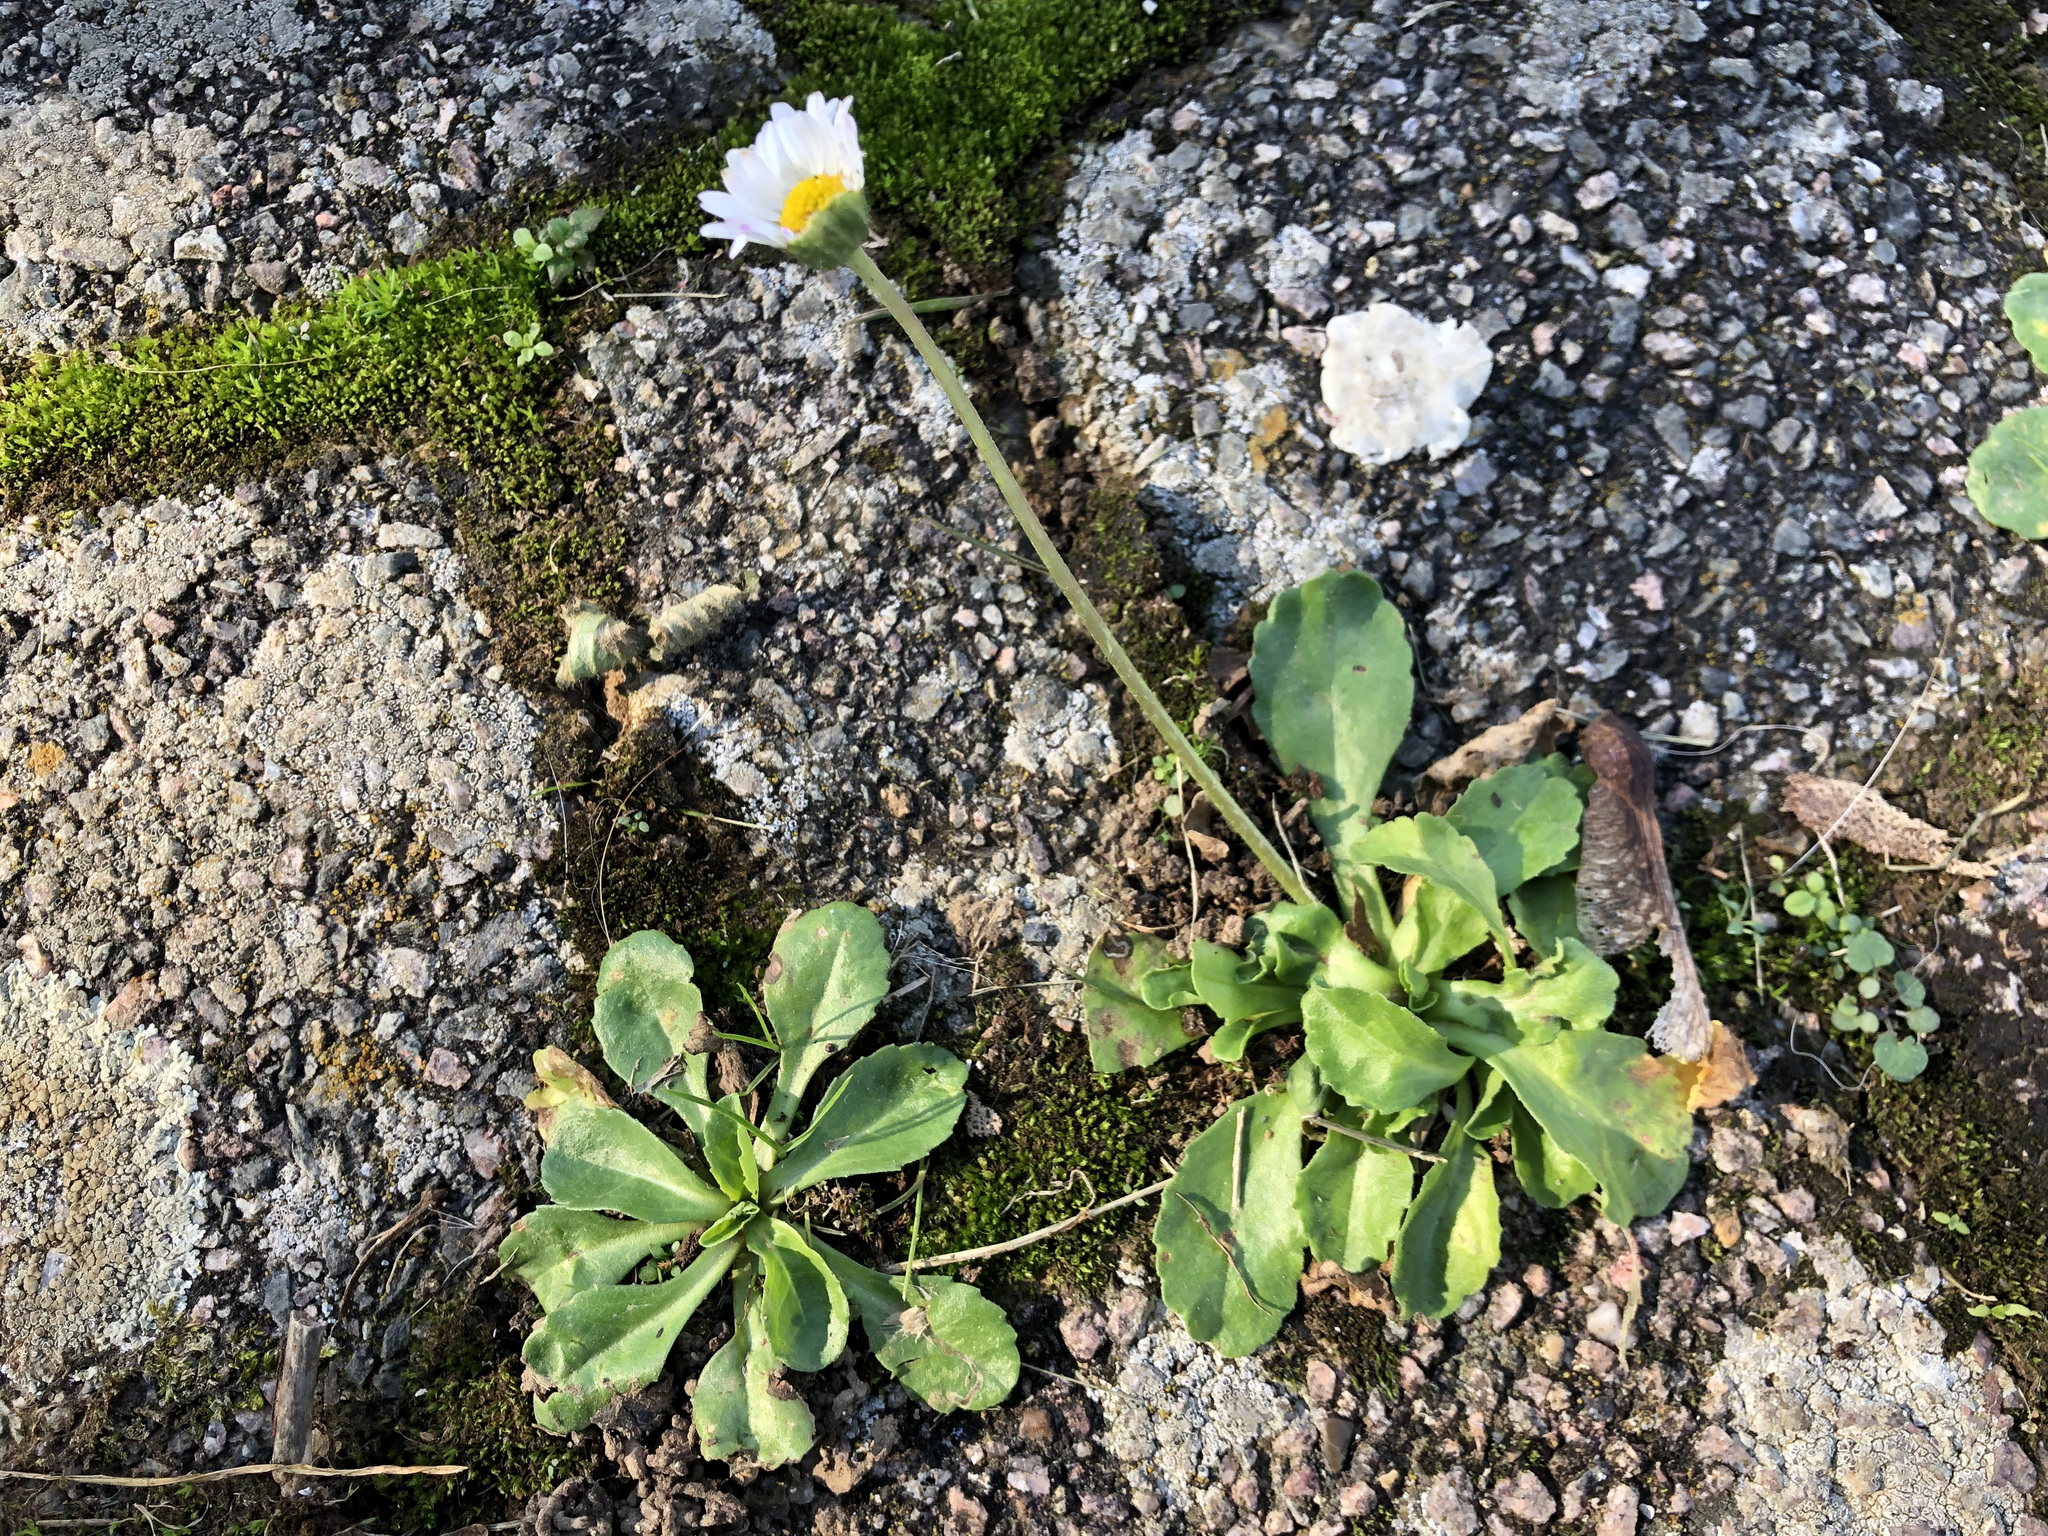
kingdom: Plantae
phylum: Tracheophyta
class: Magnoliopsida
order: Asterales
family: Asteraceae
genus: Bellis
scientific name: Bellis perennis
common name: Lawndaisy
